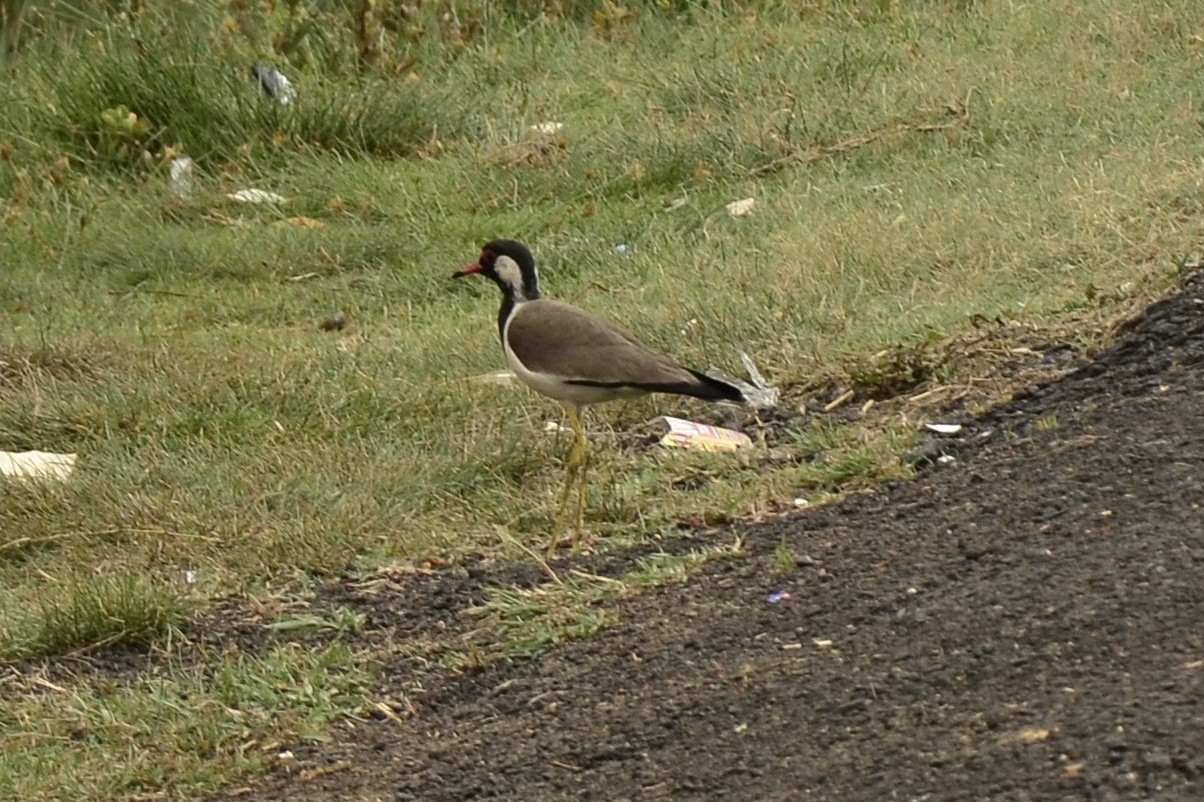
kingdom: Animalia
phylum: Chordata
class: Aves
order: Charadriiformes
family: Charadriidae
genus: Vanellus
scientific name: Vanellus indicus
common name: Red-wattled lapwing
